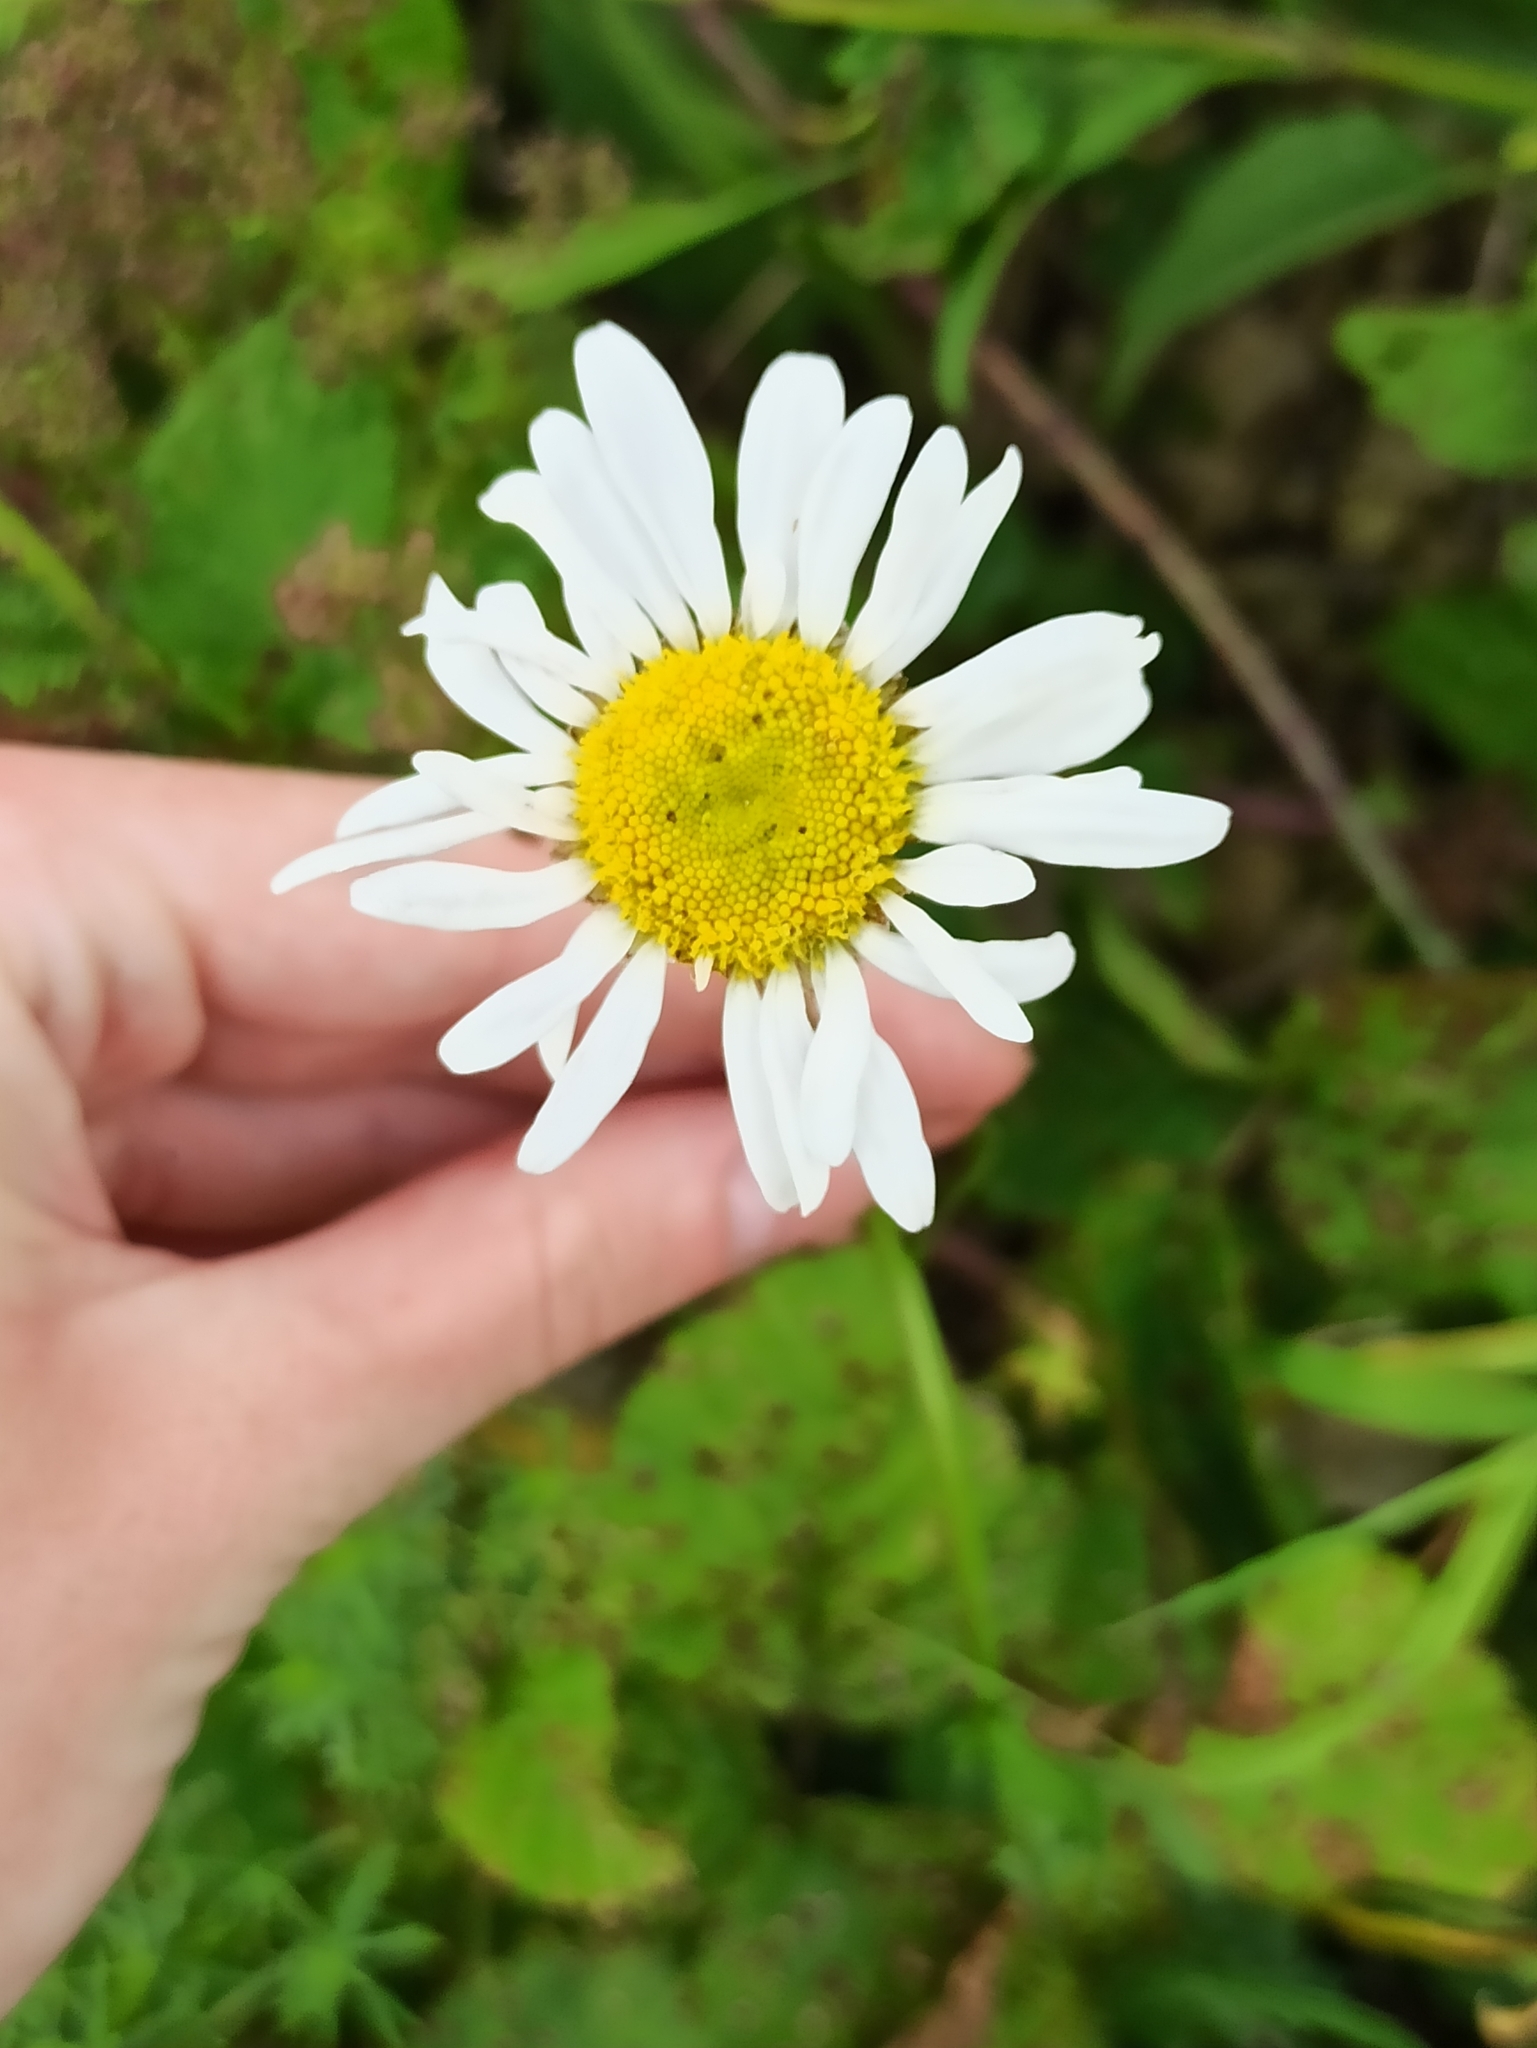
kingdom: Plantae
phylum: Tracheophyta
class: Magnoliopsida
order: Asterales
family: Asteraceae
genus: Leucanthemum
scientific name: Leucanthemum vulgare
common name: Oxeye daisy
